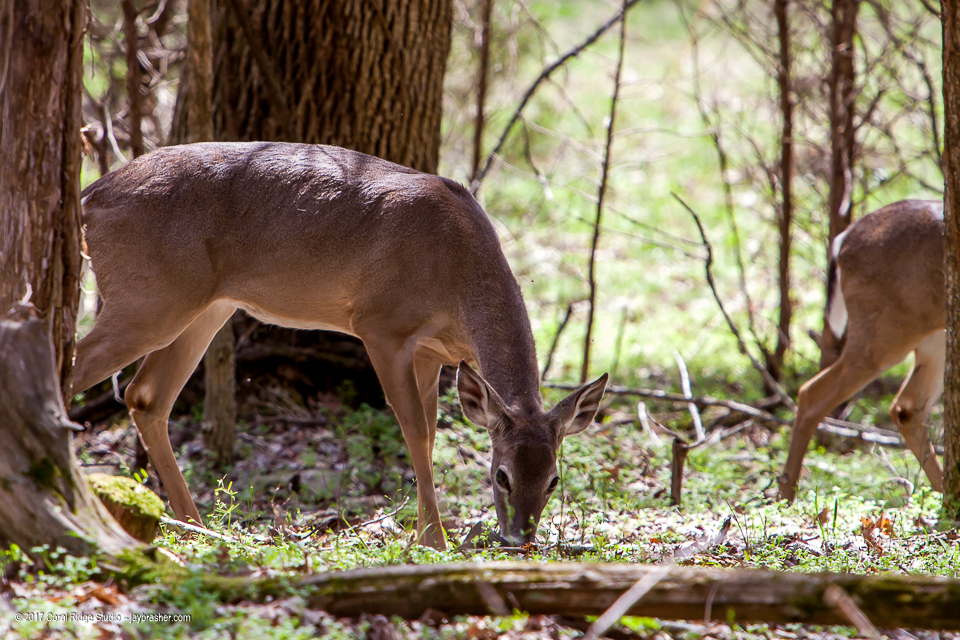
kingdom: Animalia
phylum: Chordata
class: Mammalia
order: Artiodactyla
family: Cervidae
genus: Odocoileus
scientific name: Odocoileus virginianus
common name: White-tailed deer
